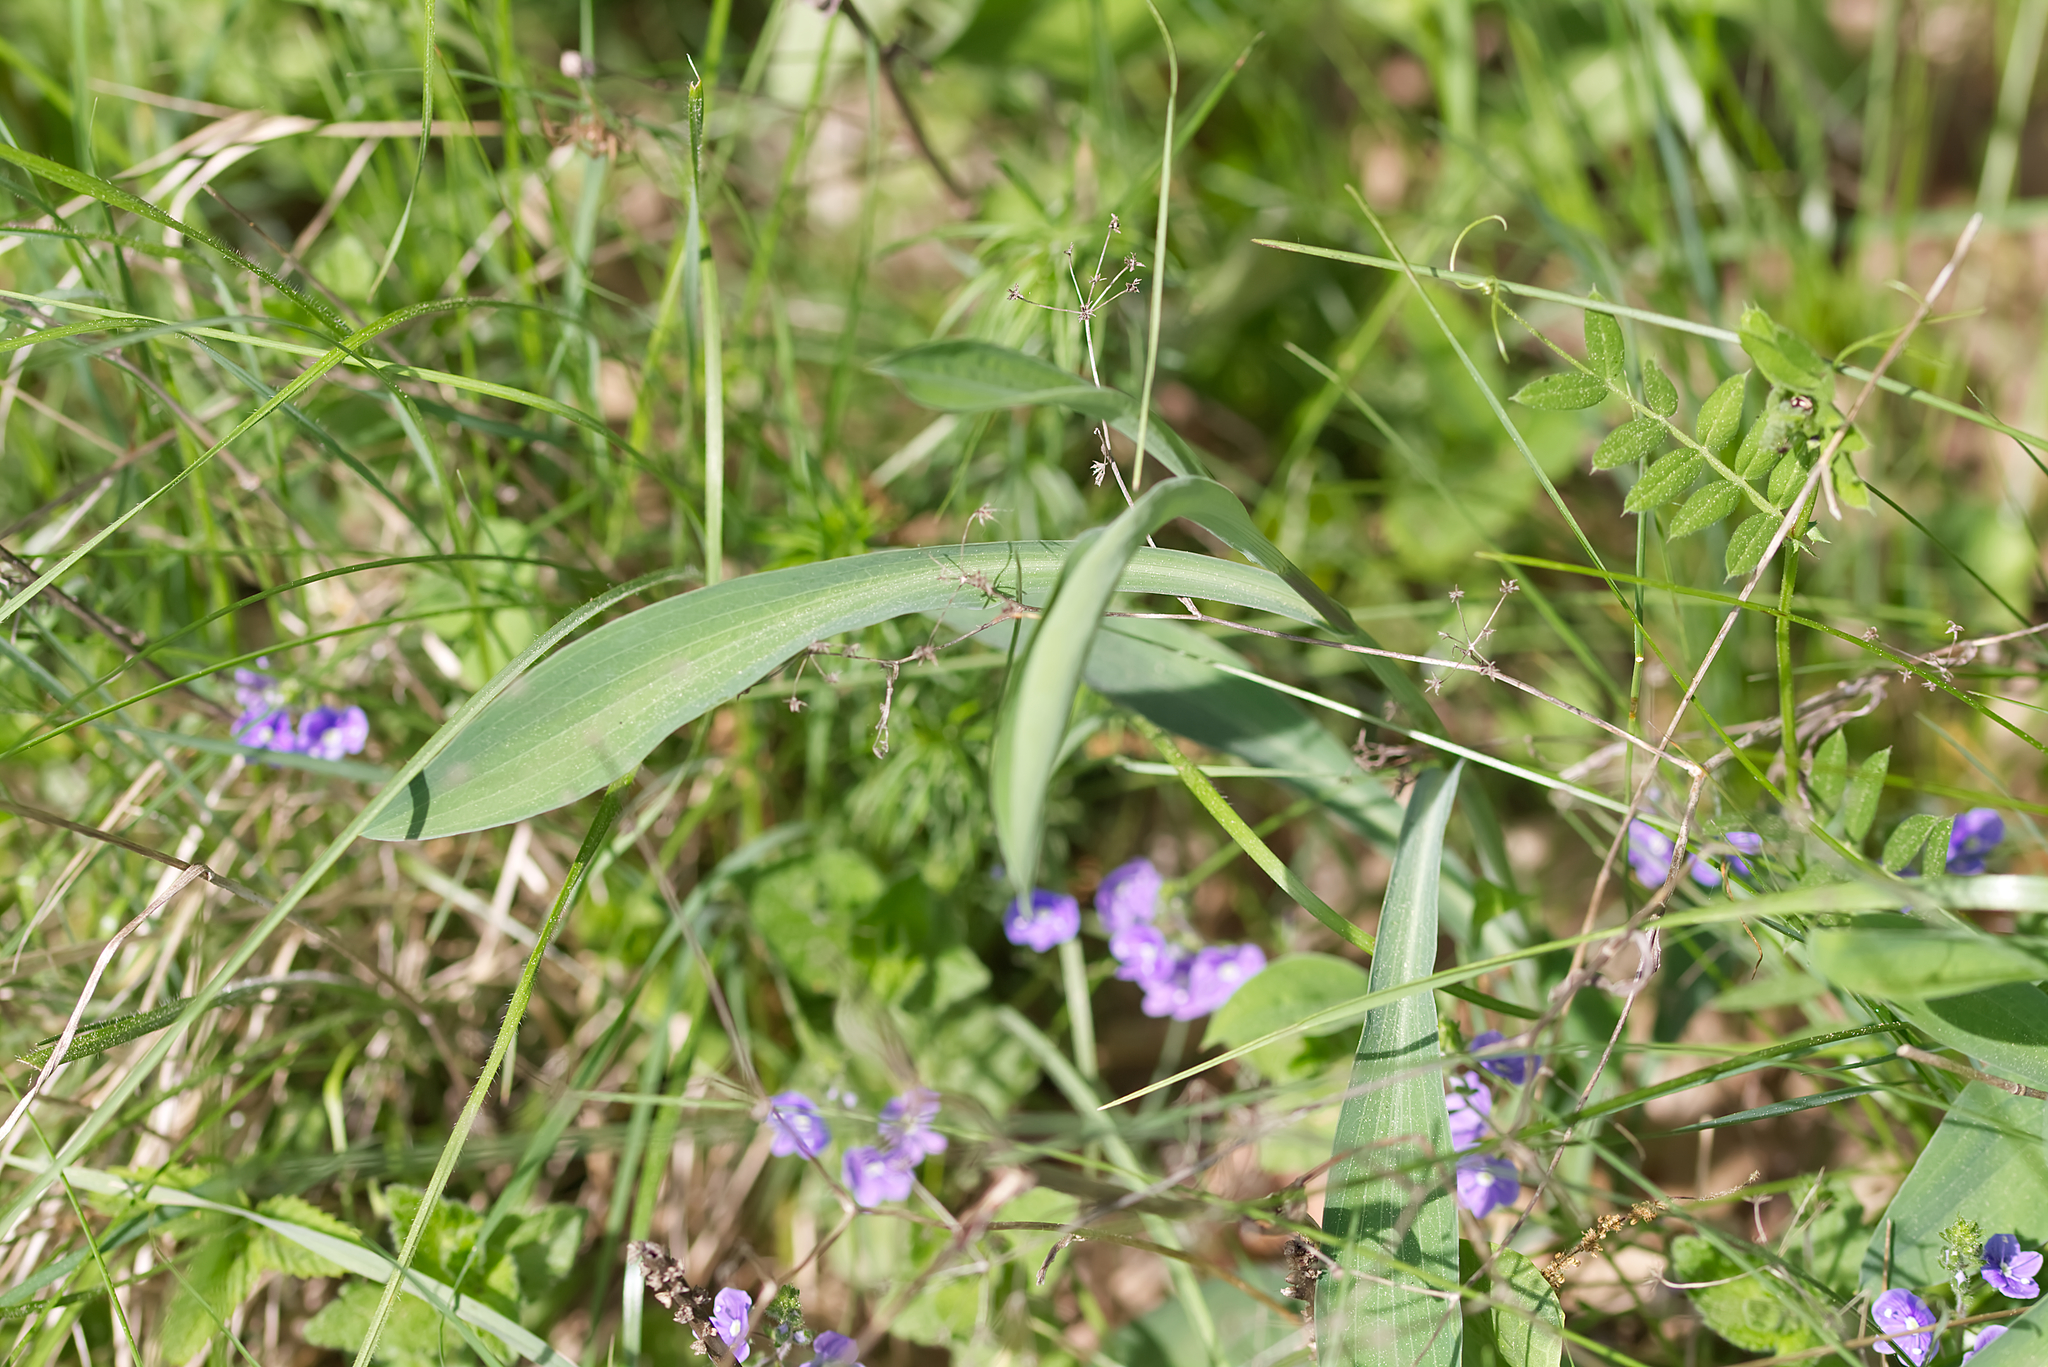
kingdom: Plantae
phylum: Tracheophyta
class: Magnoliopsida
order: Apiales
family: Apiaceae
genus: Bupleurum
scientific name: Bupleurum falcatum
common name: Sickle-leaved hare's-ear
